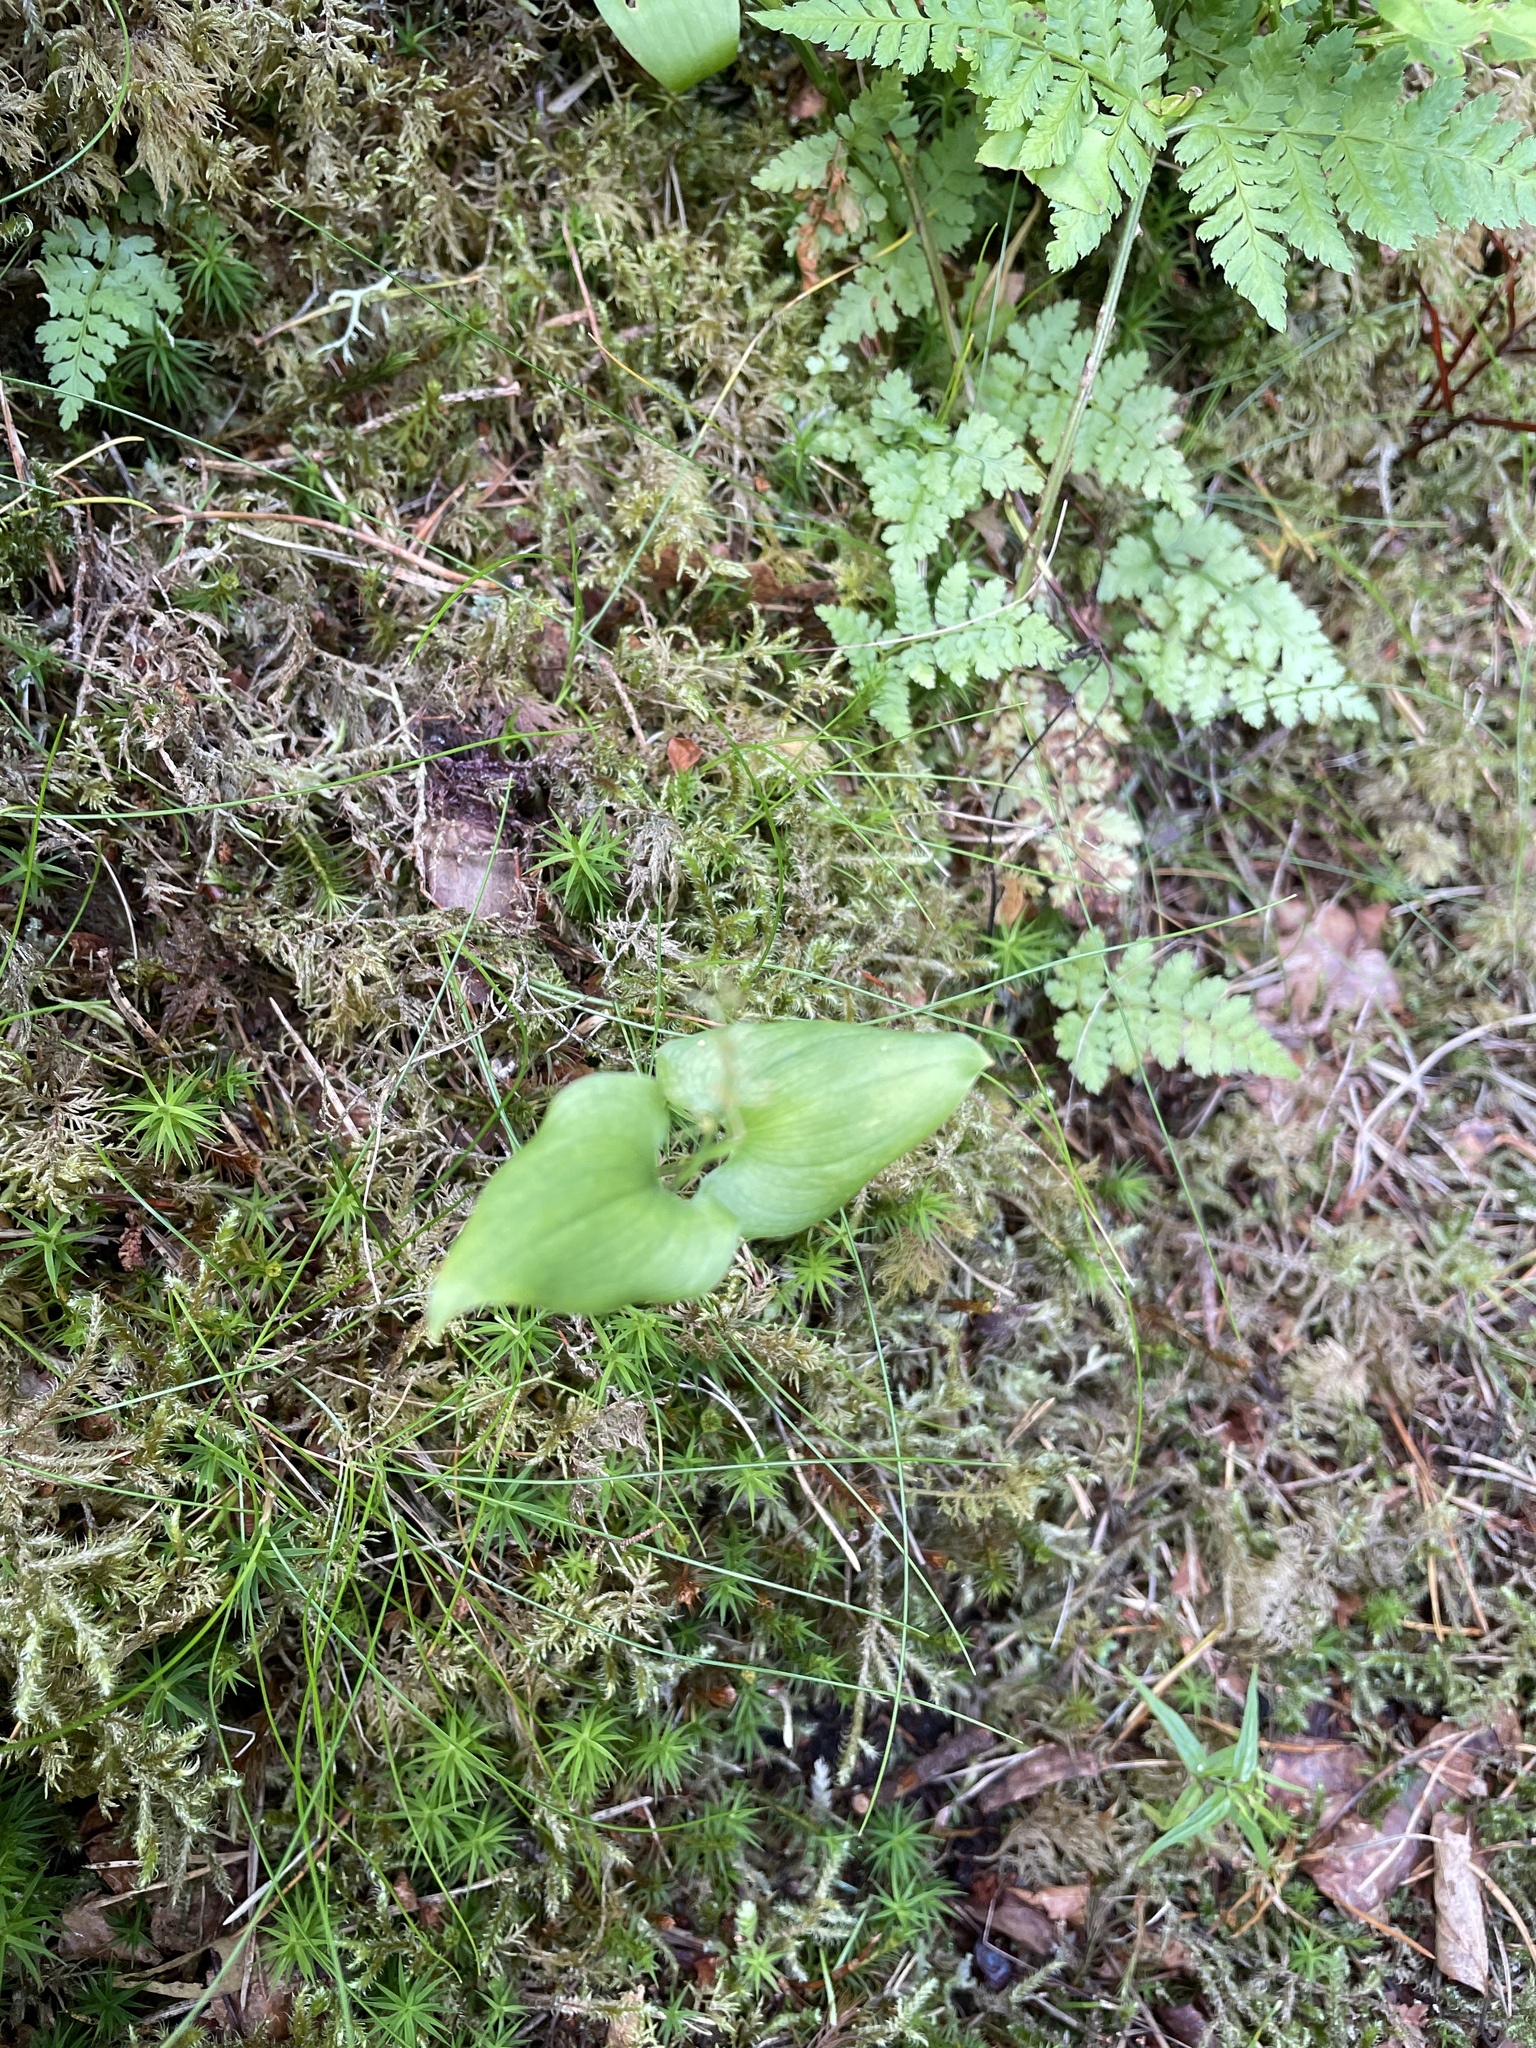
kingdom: Plantae
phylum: Tracheophyta
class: Liliopsida
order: Asparagales
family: Asparagaceae
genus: Maianthemum
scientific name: Maianthemum bifolium
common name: May lily
